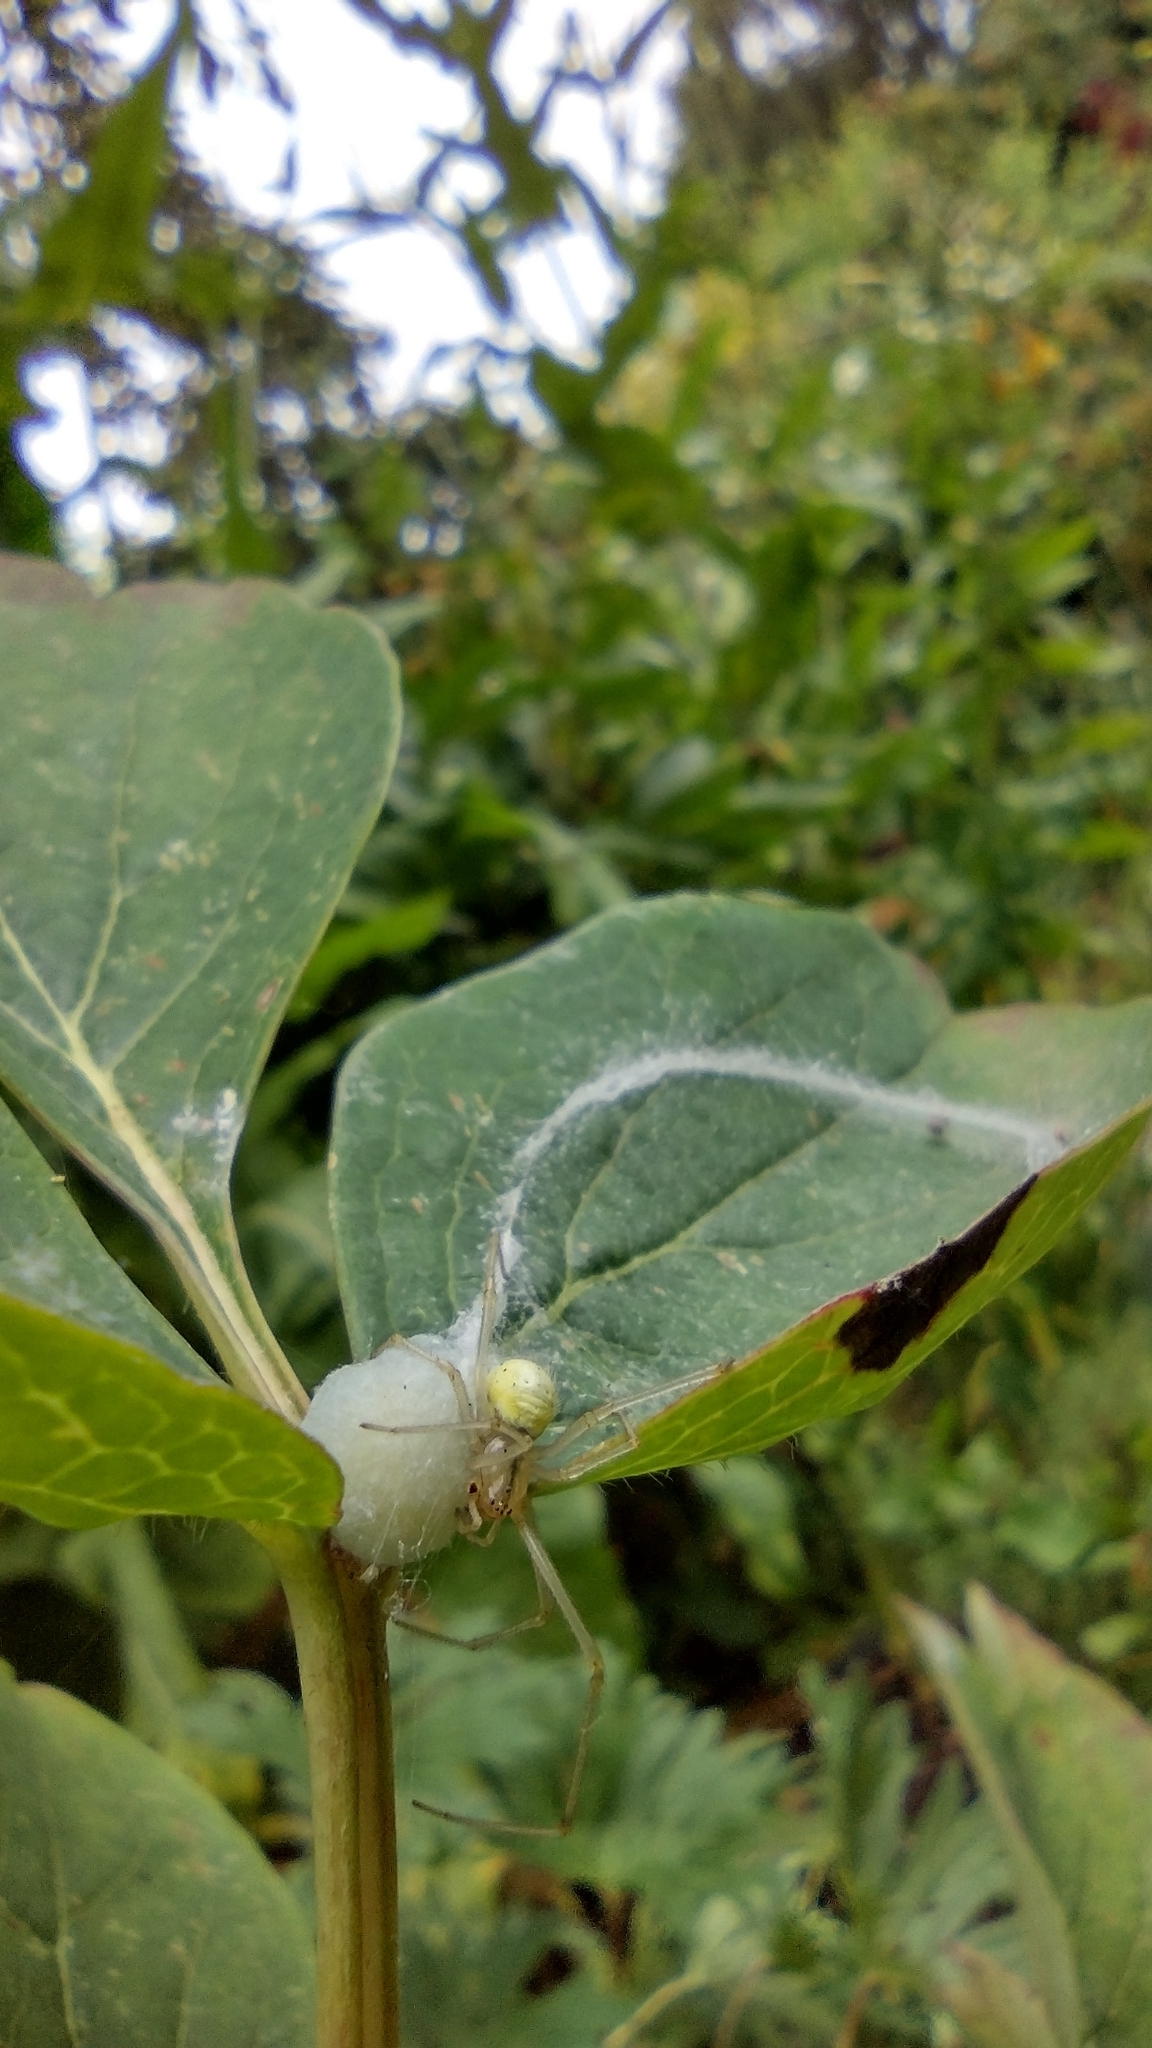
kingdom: Animalia
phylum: Arthropoda
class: Arachnida
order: Araneae
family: Theridiidae
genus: Enoplognatha
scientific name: Enoplognatha ovata
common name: Common candy-striped spider
